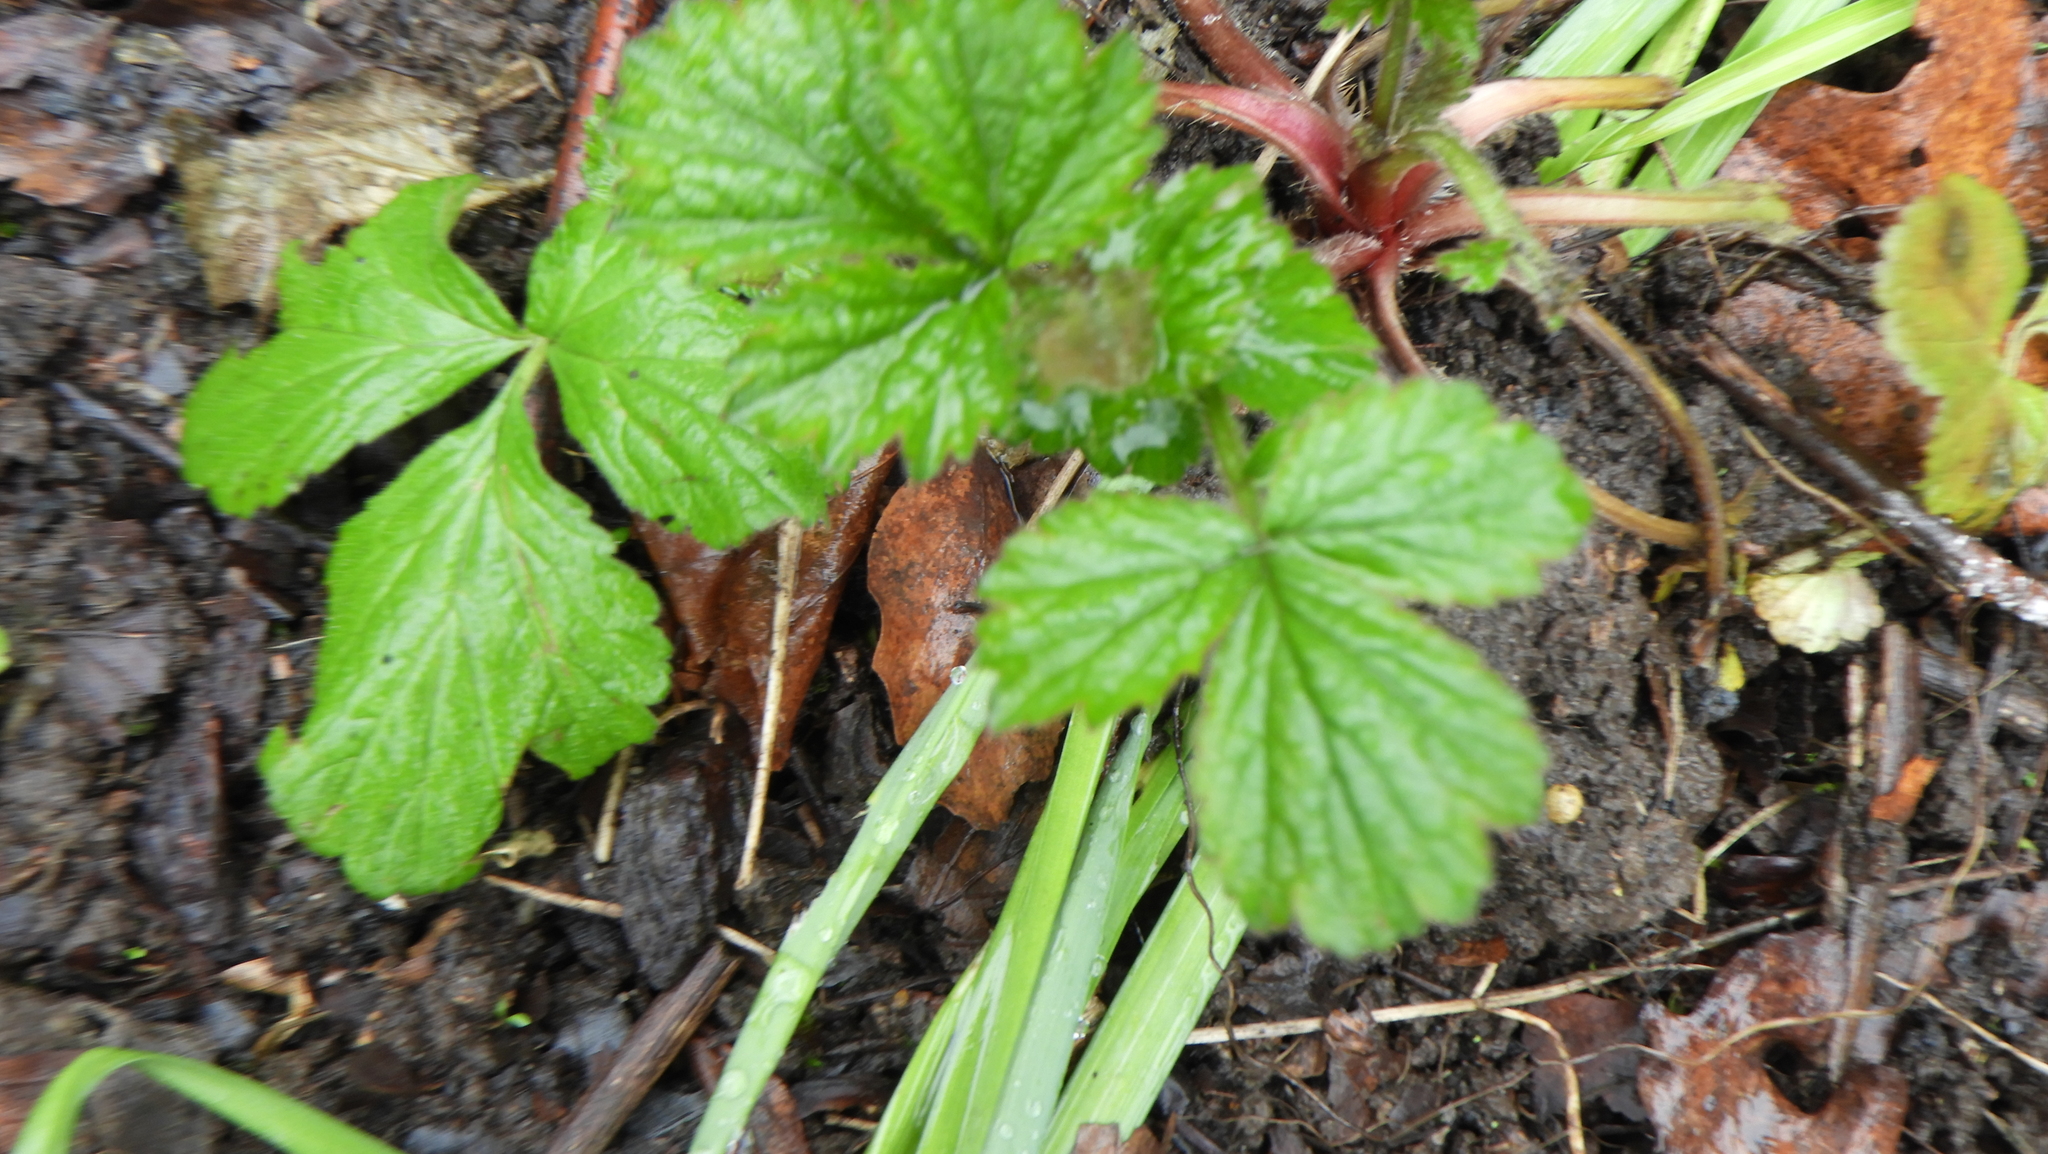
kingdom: Plantae
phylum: Tracheophyta
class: Magnoliopsida
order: Rosales
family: Rosaceae
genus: Geum
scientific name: Geum urbanum
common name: Wood avens
